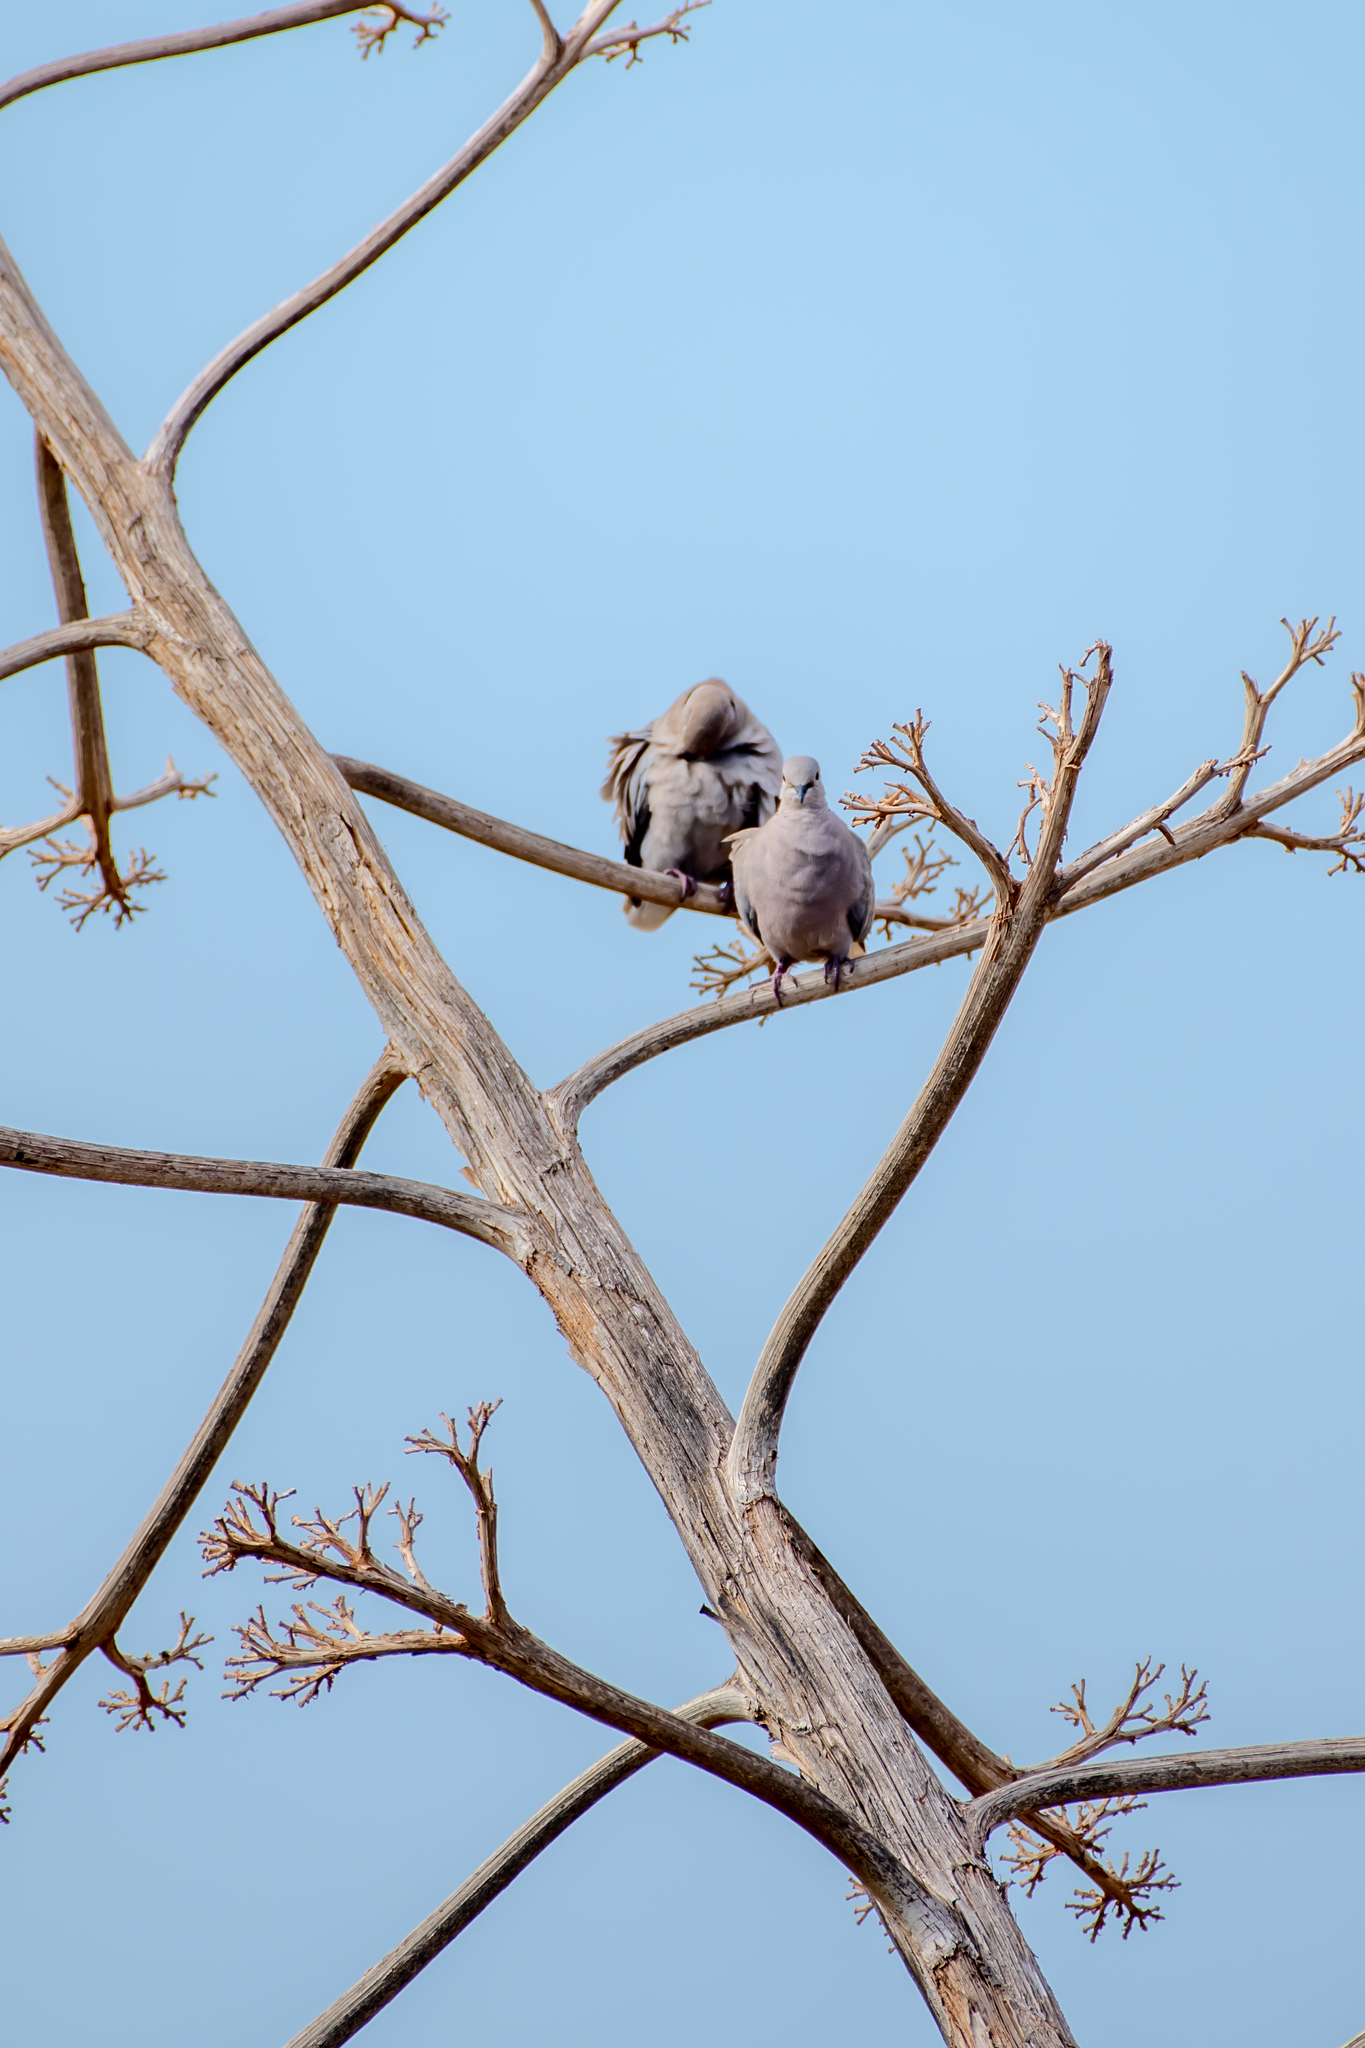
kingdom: Animalia
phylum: Chordata
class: Aves
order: Columbiformes
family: Columbidae
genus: Streptopelia
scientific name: Streptopelia decaocto
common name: Eurasian collared dove
